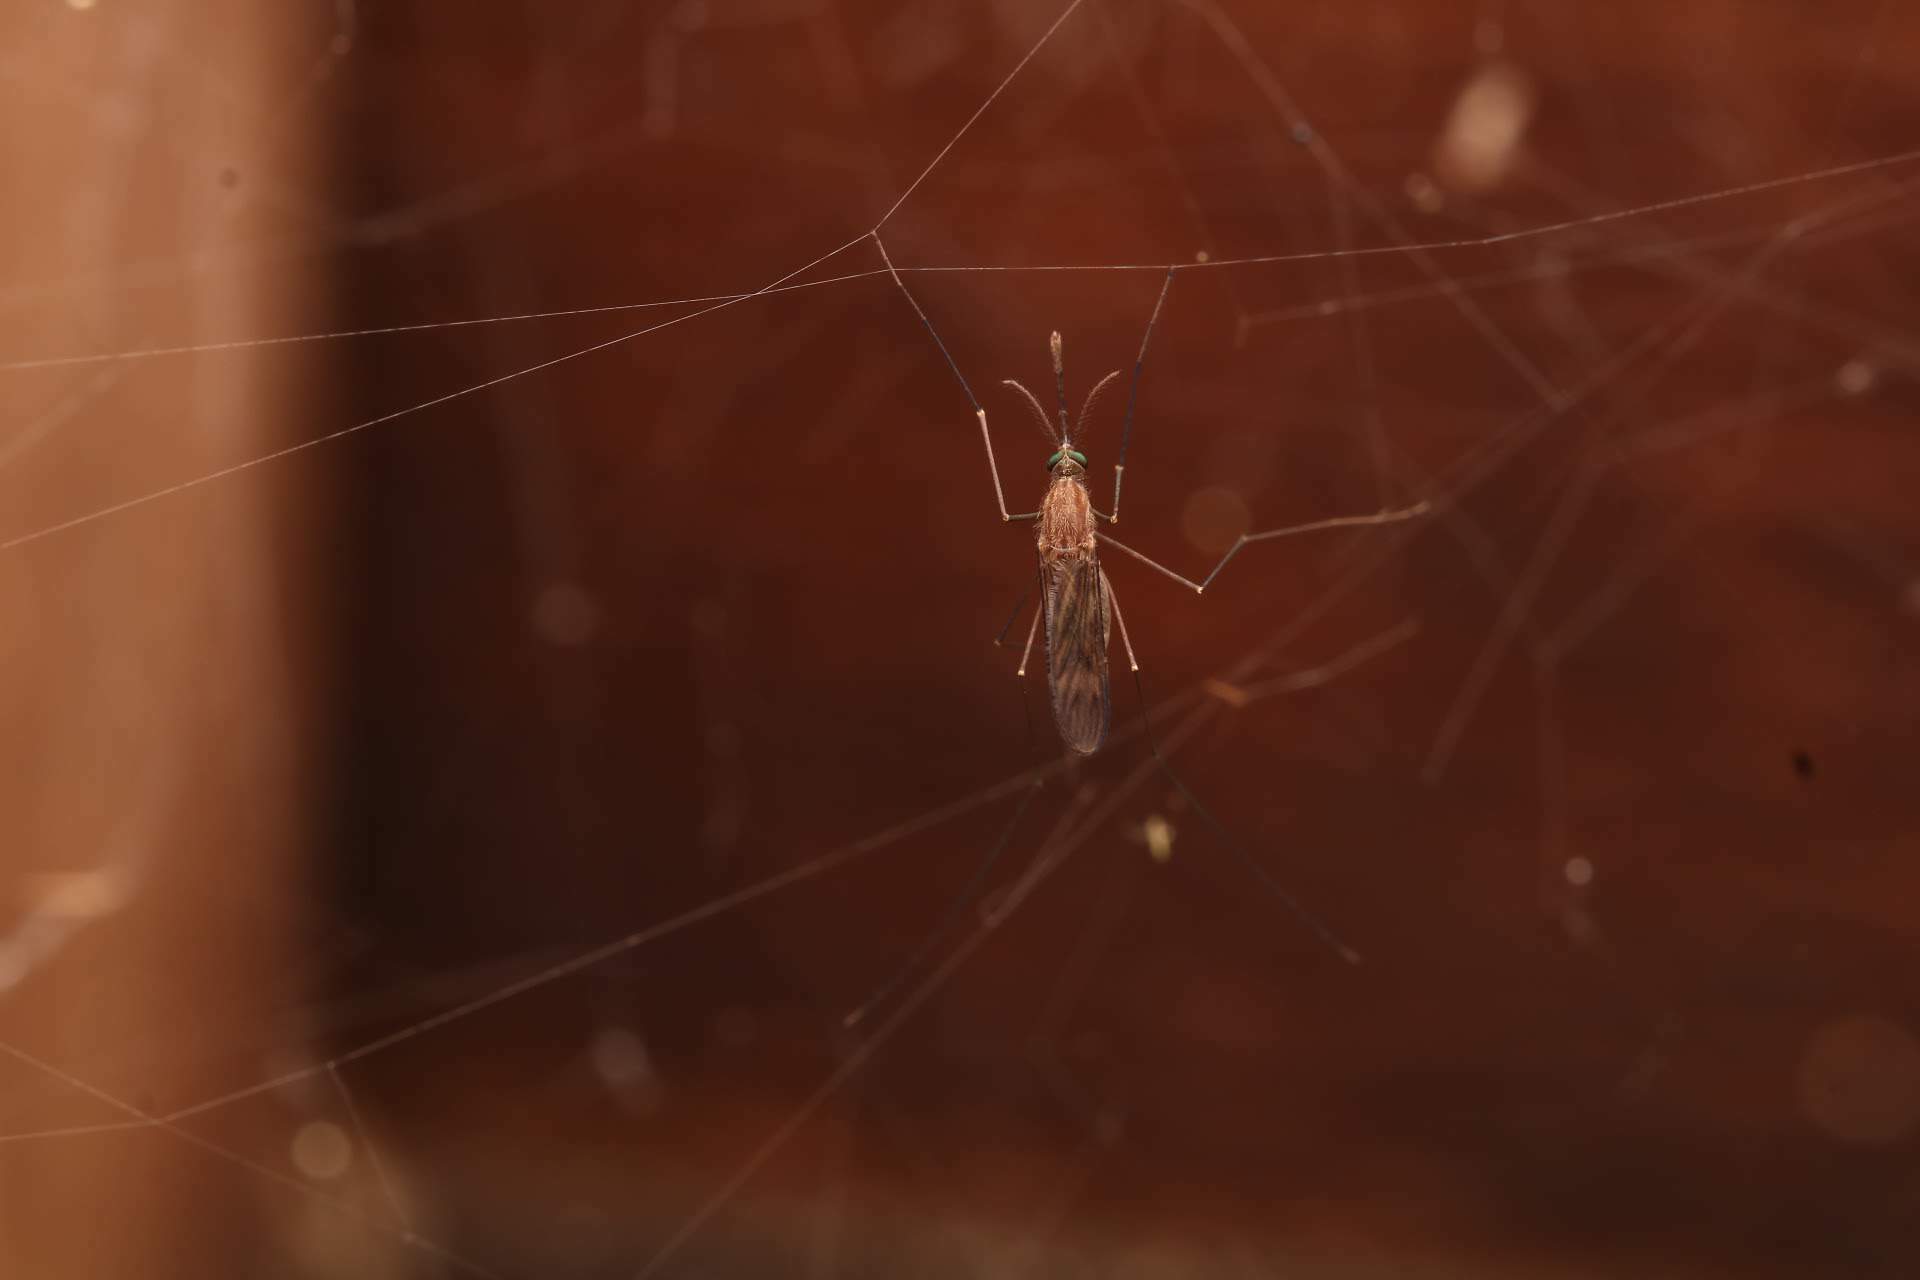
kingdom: Animalia
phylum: Arthropoda
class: Insecta
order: Diptera
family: Culicidae
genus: Anopheles
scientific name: Anopheles
